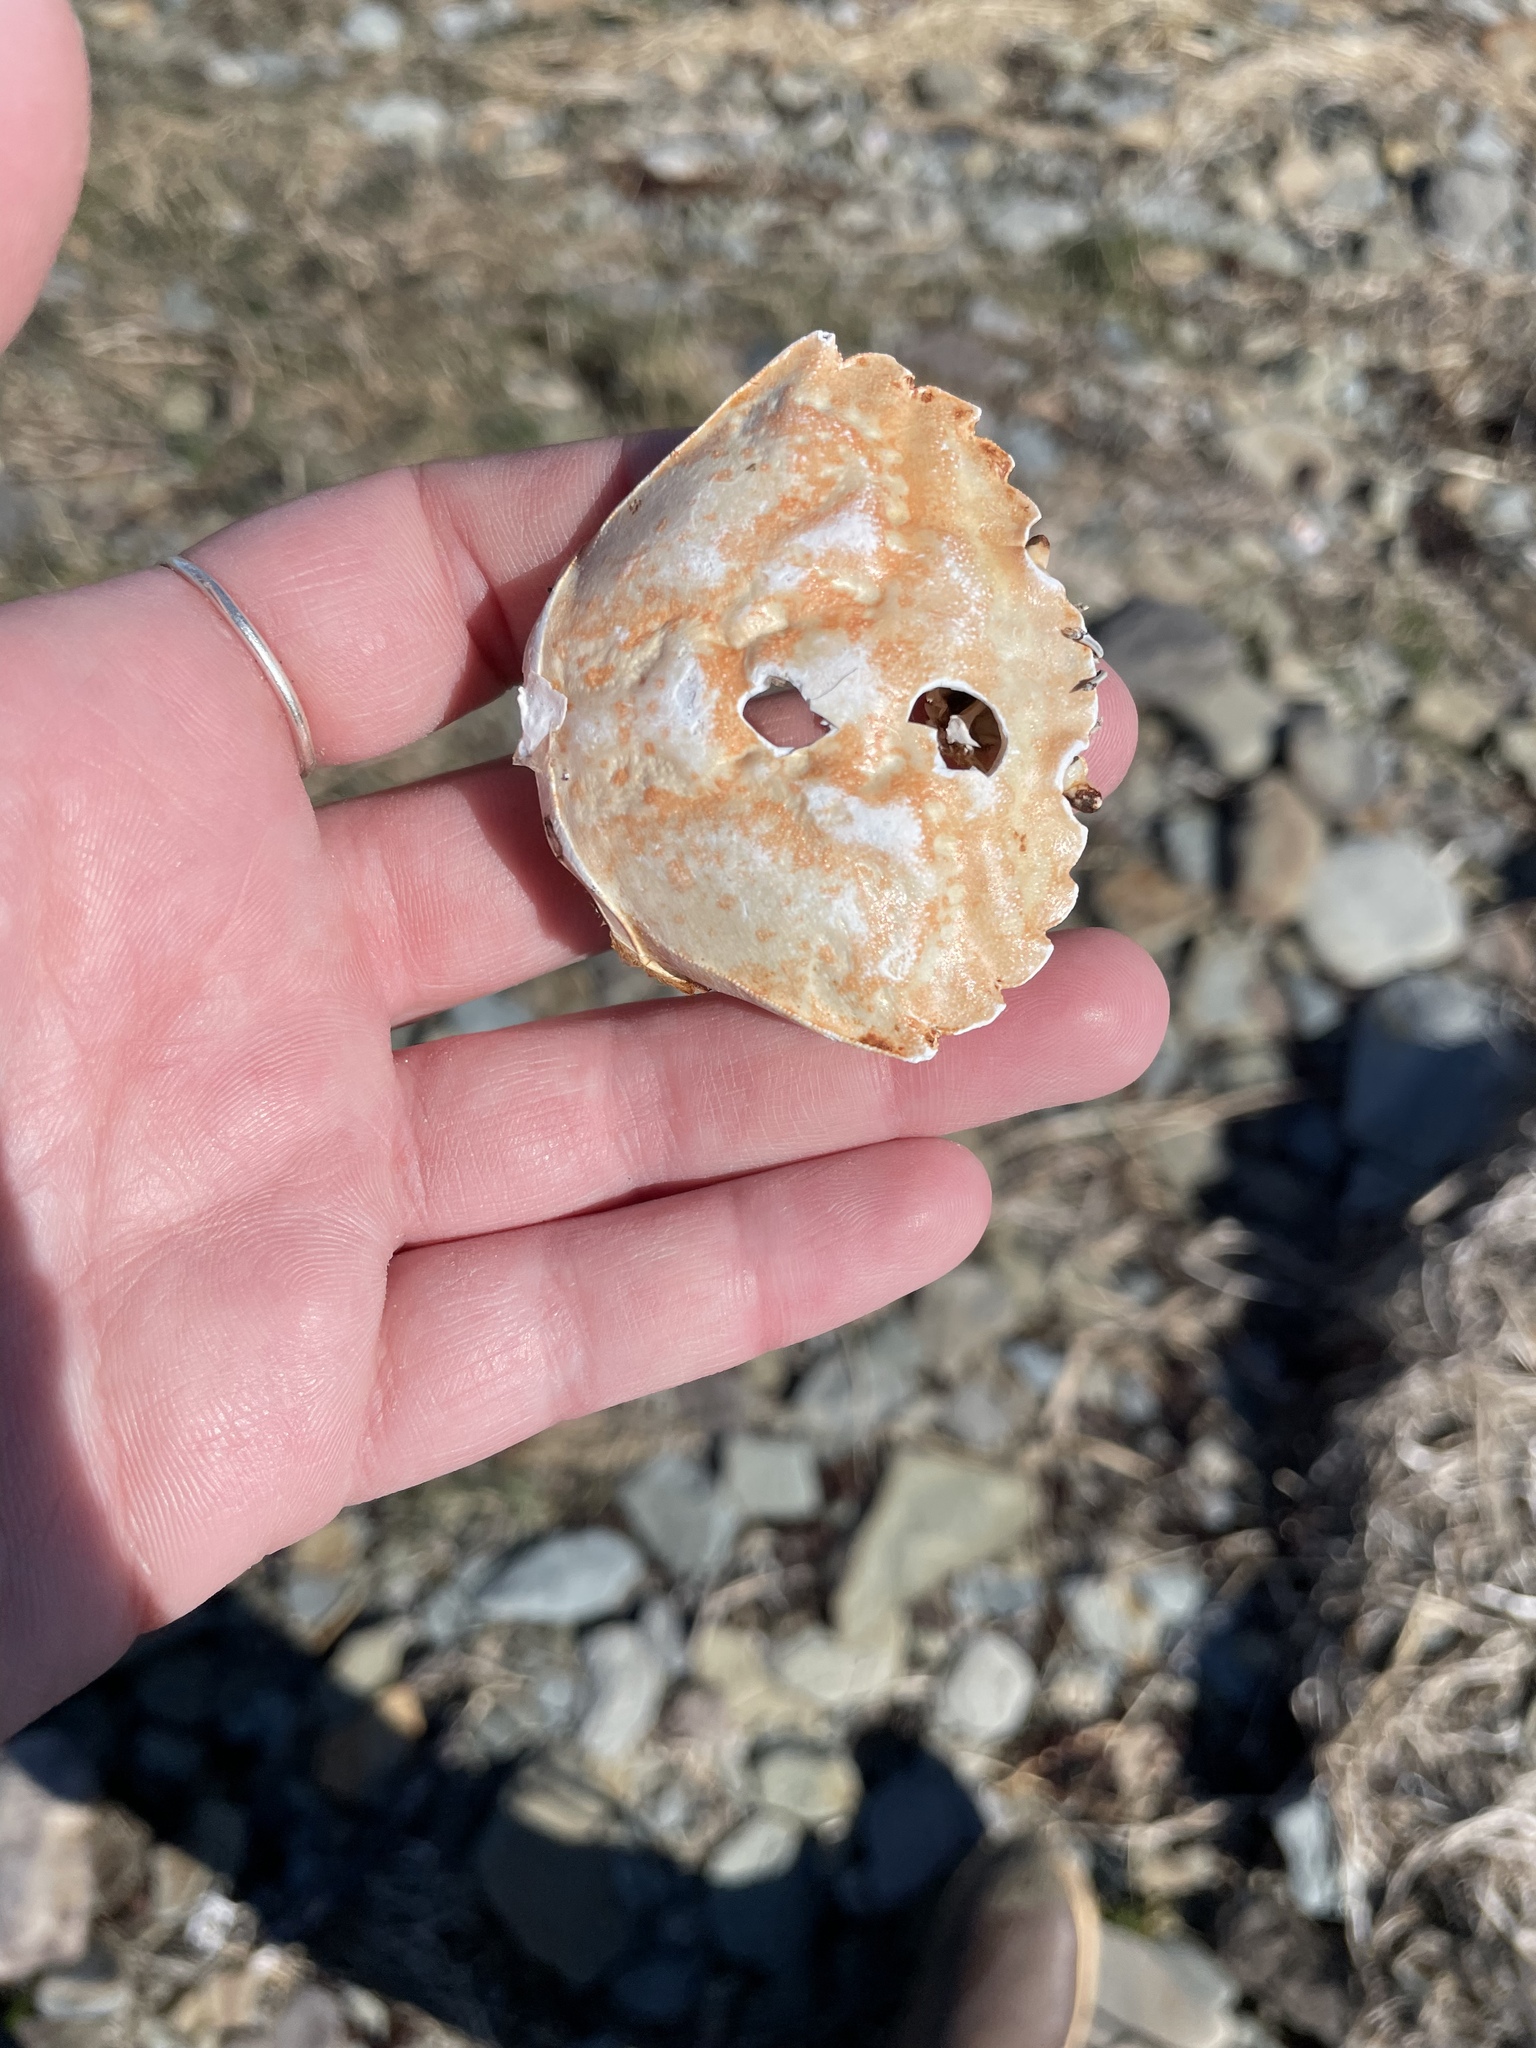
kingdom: Animalia
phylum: Arthropoda
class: Malacostraca
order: Decapoda
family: Carcinidae
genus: Carcinus
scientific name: Carcinus maenas
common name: European green crab
